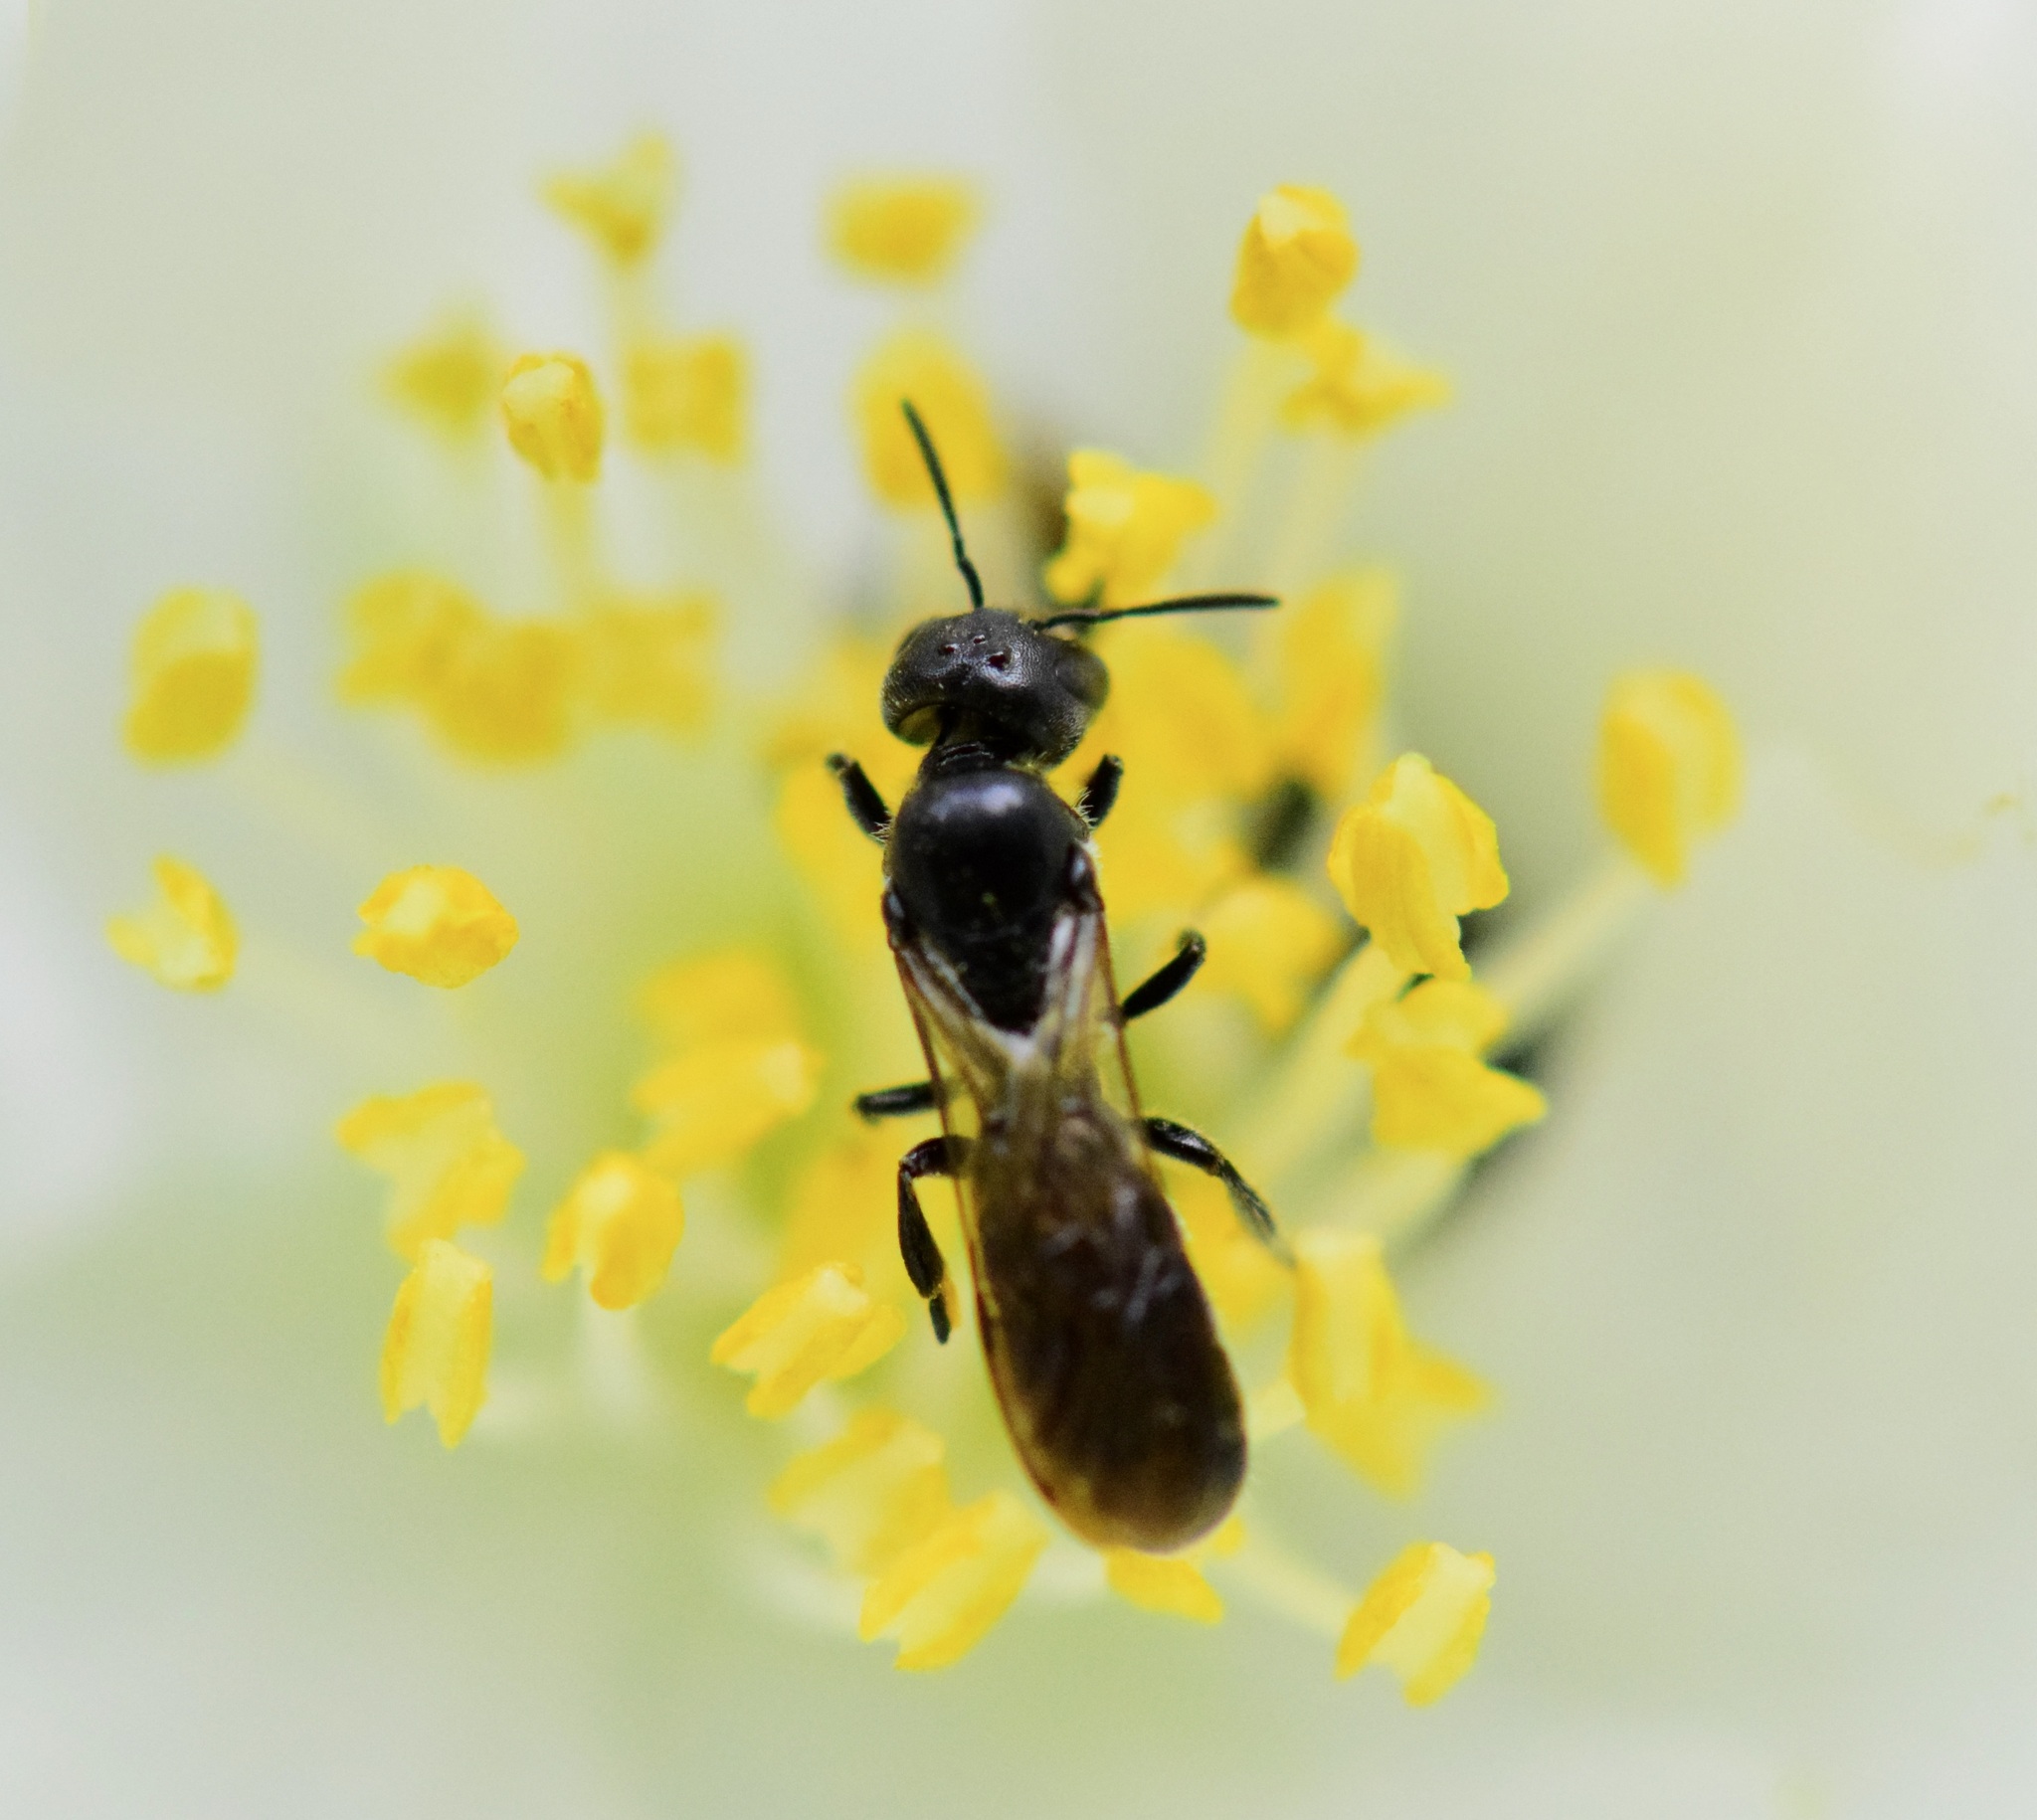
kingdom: Animalia
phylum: Arthropoda
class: Insecta
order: Hymenoptera
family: Megachilidae
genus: Chelostoma
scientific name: Chelostoma philadelphi
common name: Mock-orange scissor bee
